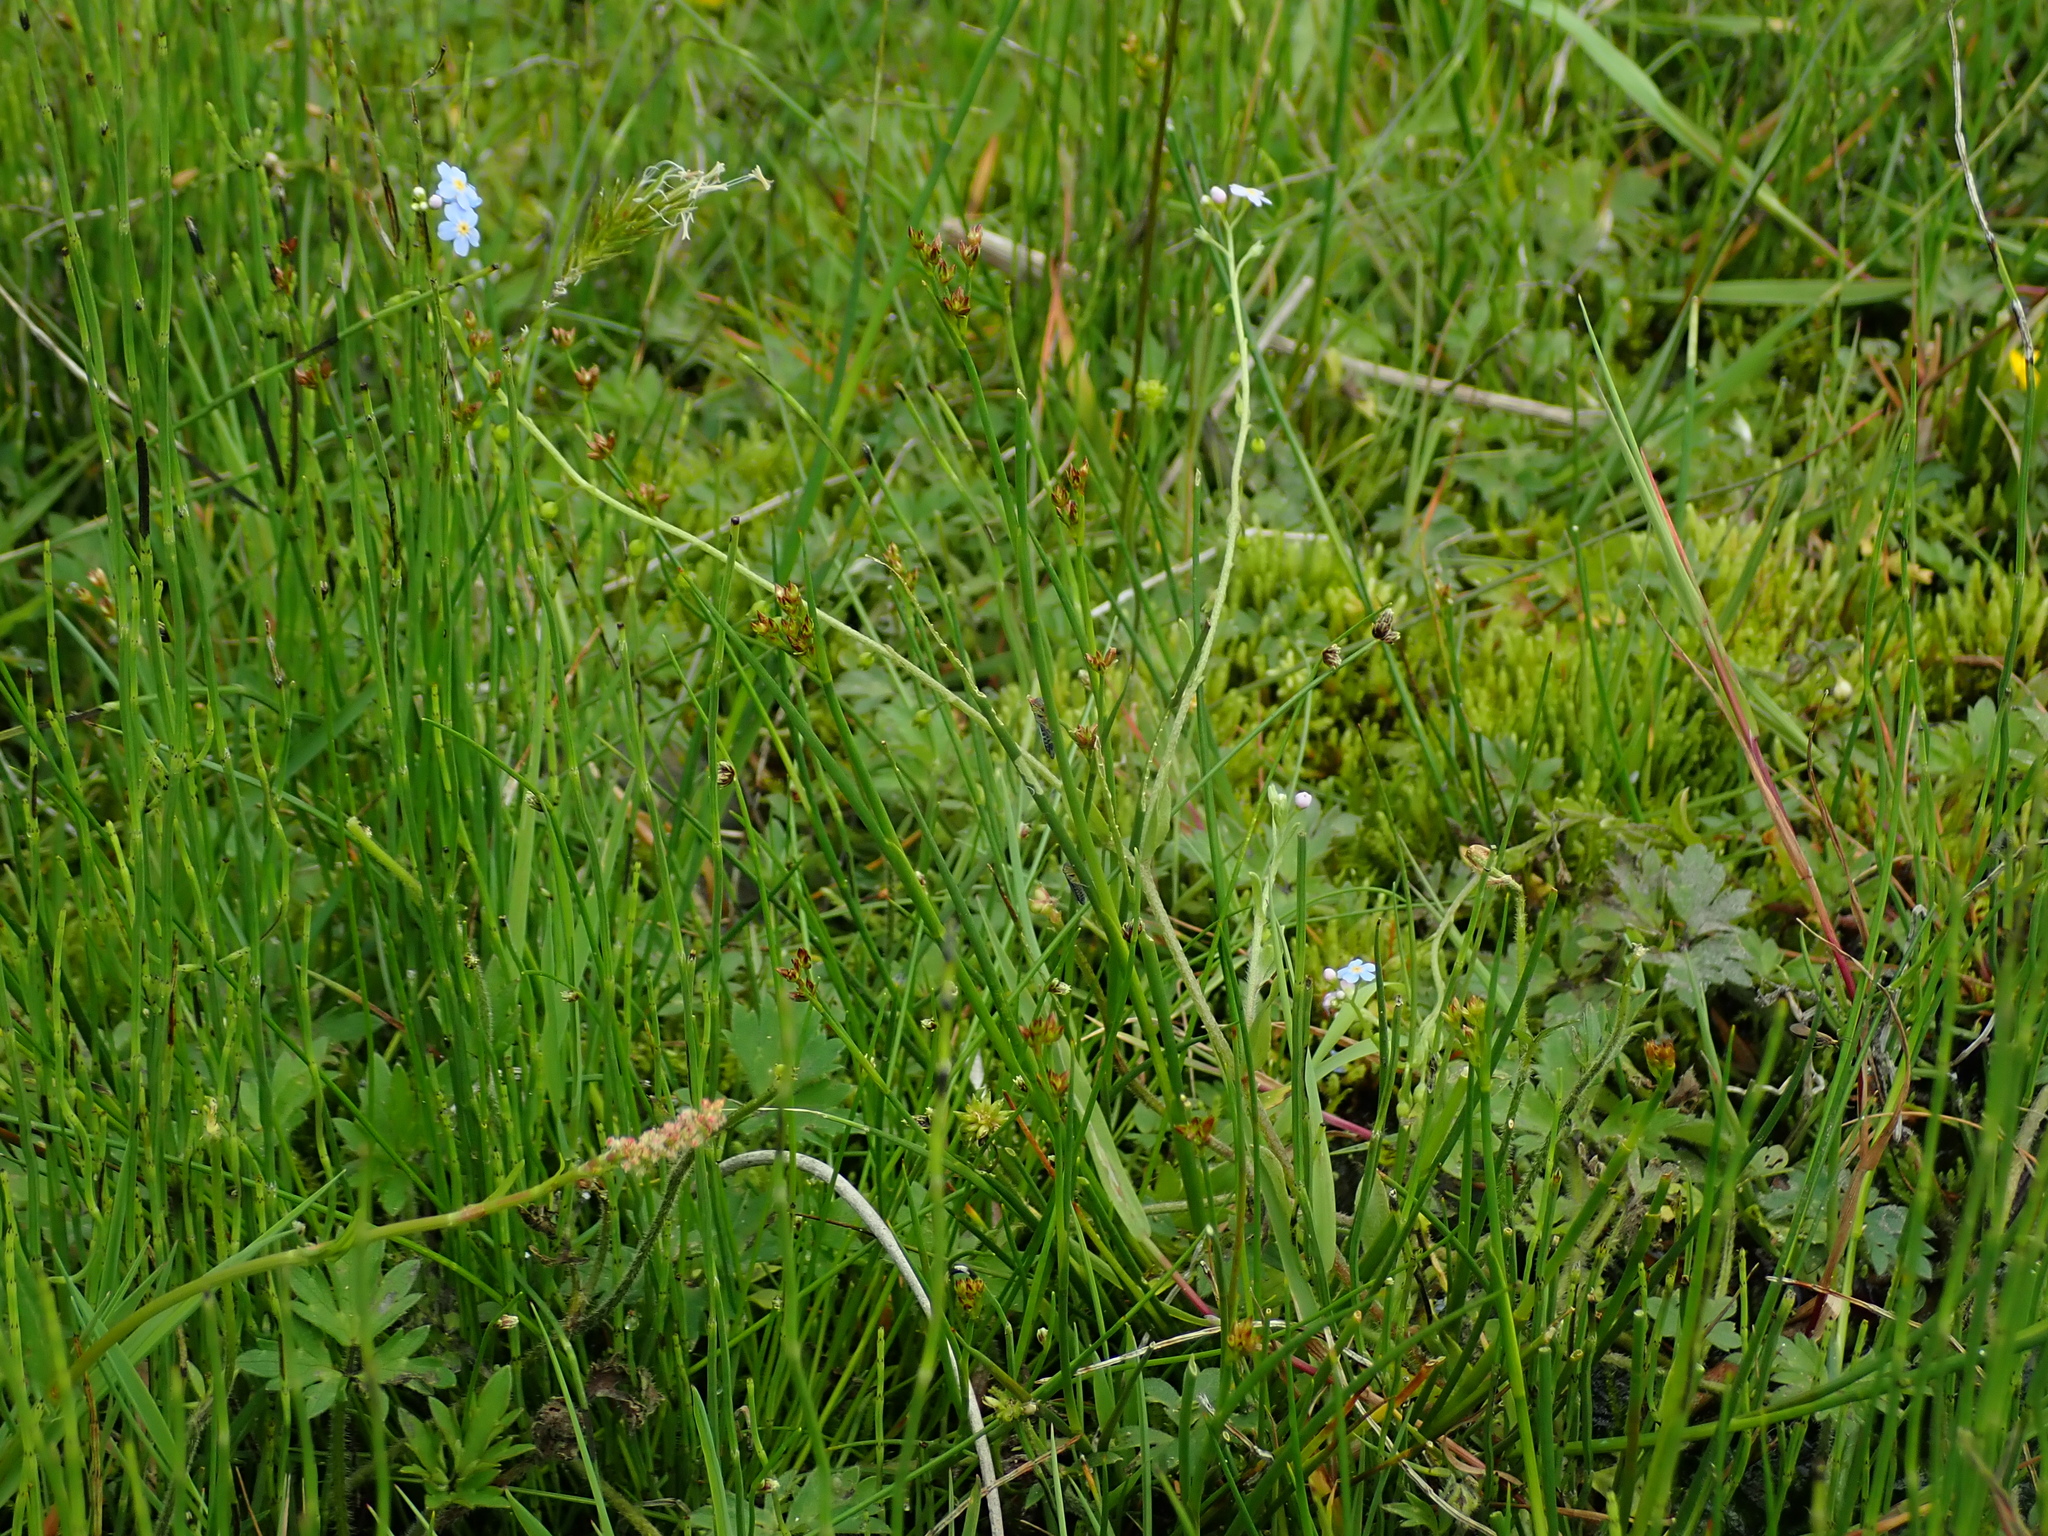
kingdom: Plantae
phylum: Tracheophyta
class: Magnoliopsida
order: Boraginales
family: Boraginaceae
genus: Myosotis
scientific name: Myosotis scorpioides
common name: Water forget-me-not
